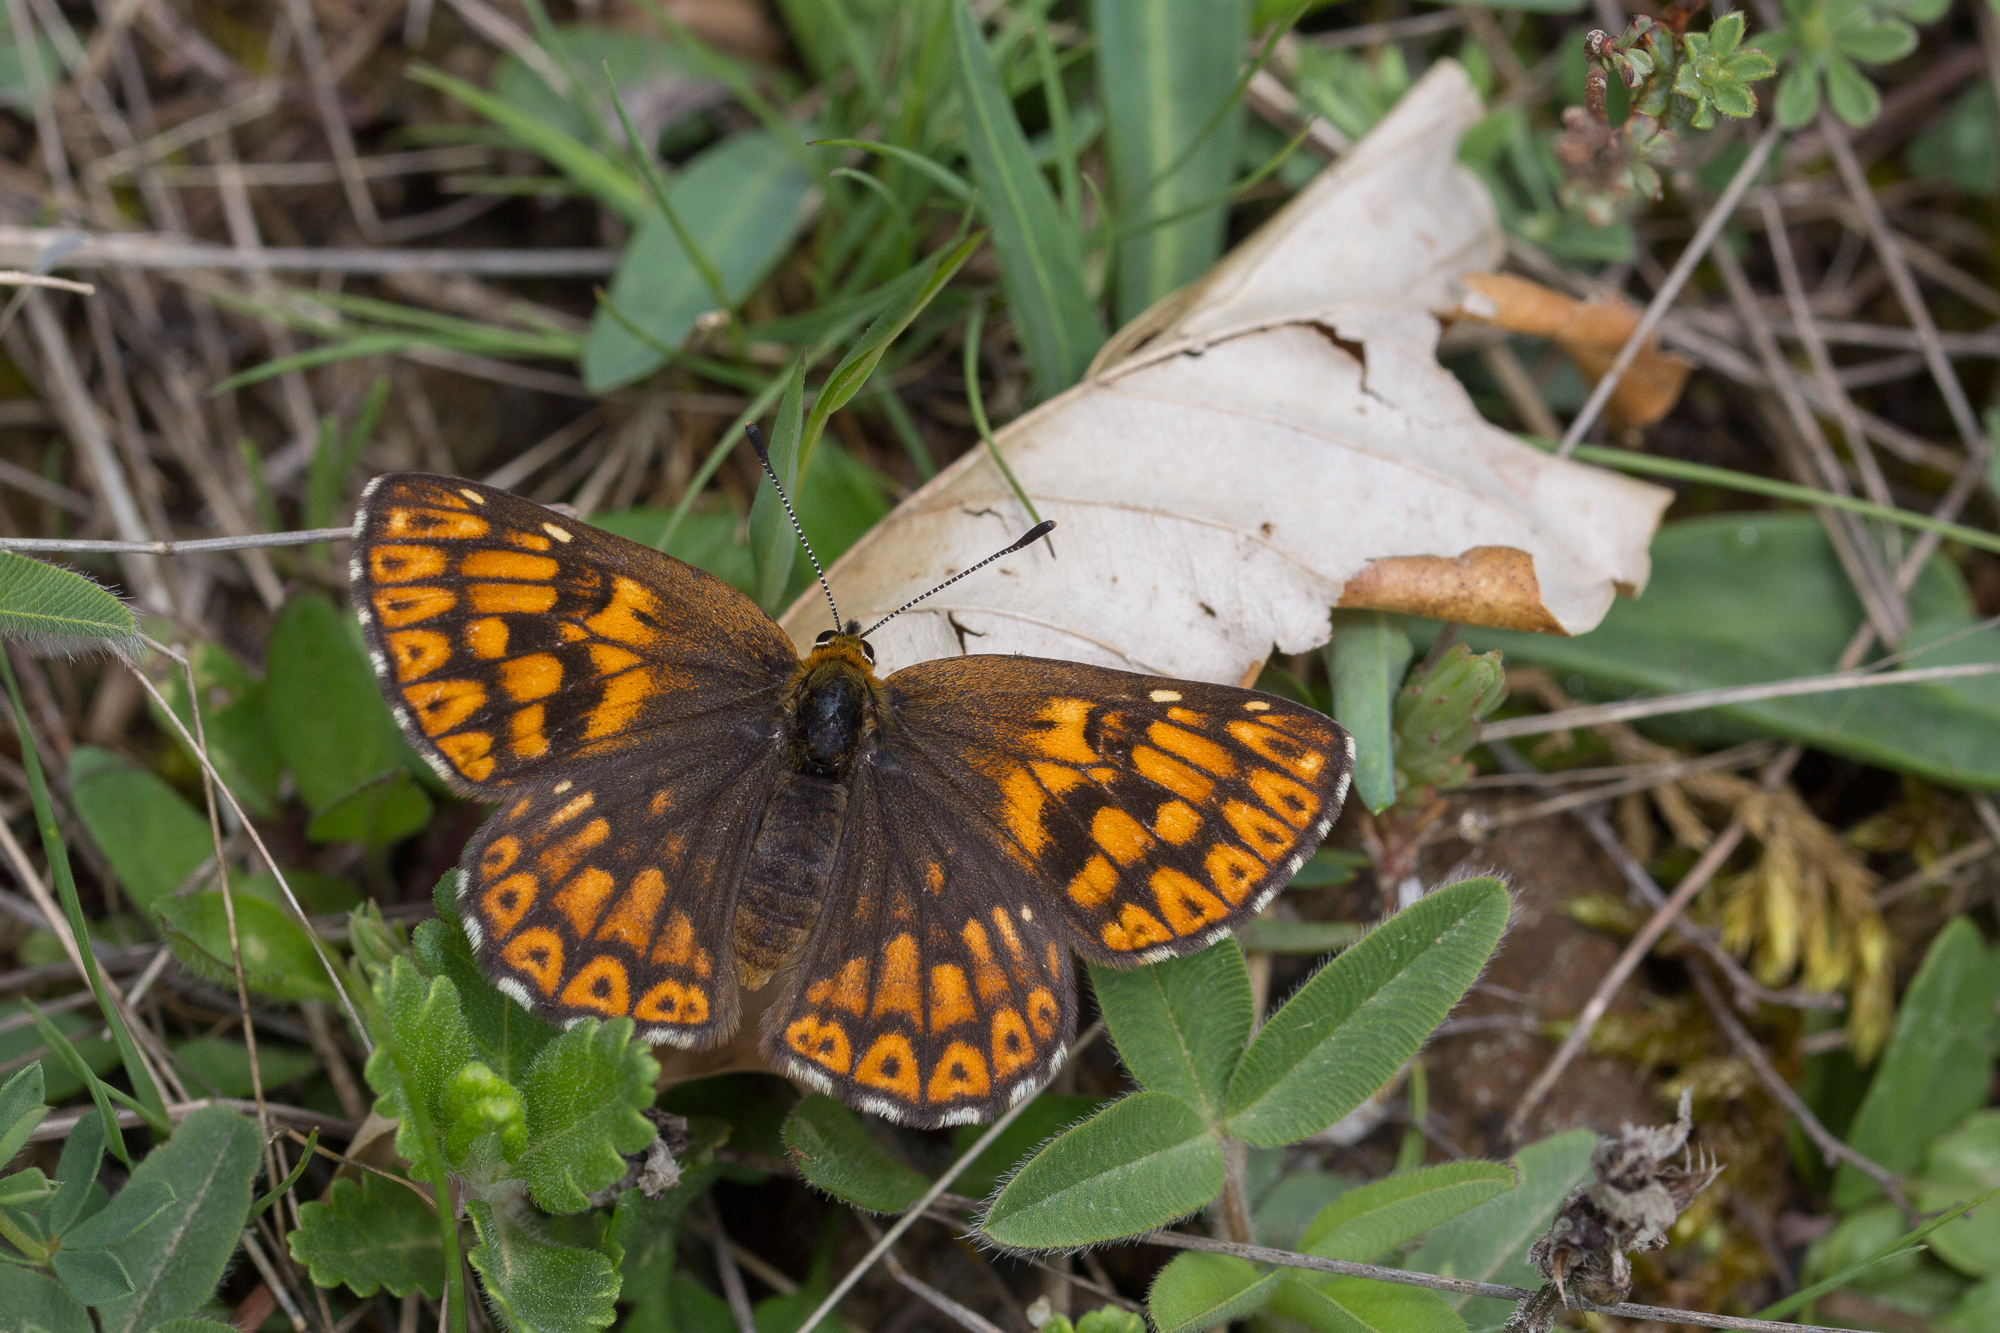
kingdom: Animalia
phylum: Arthropoda
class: Insecta
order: Lepidoptera
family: Riodinidae
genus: Hamearis
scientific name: Hamearis lucina
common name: Duke of burgundy fritillary
